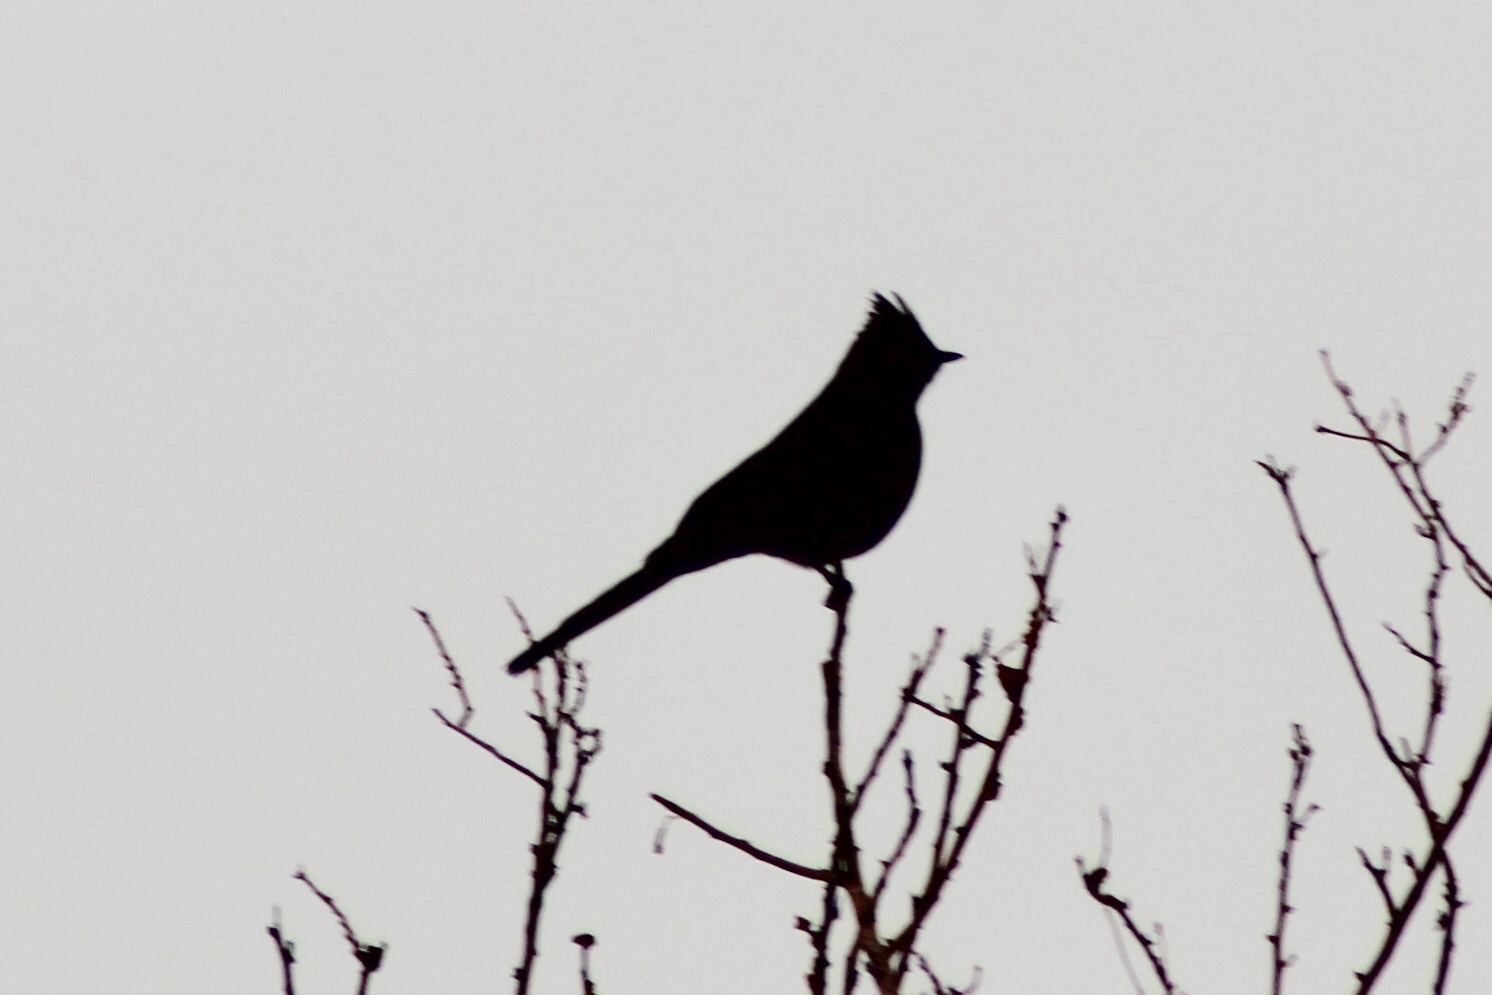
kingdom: Animalia
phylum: Chordata
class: Aves
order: Passeriformes
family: Ptilogonatidae
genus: Phainopepla
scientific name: Phainopepla nitens
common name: Phainopepla
